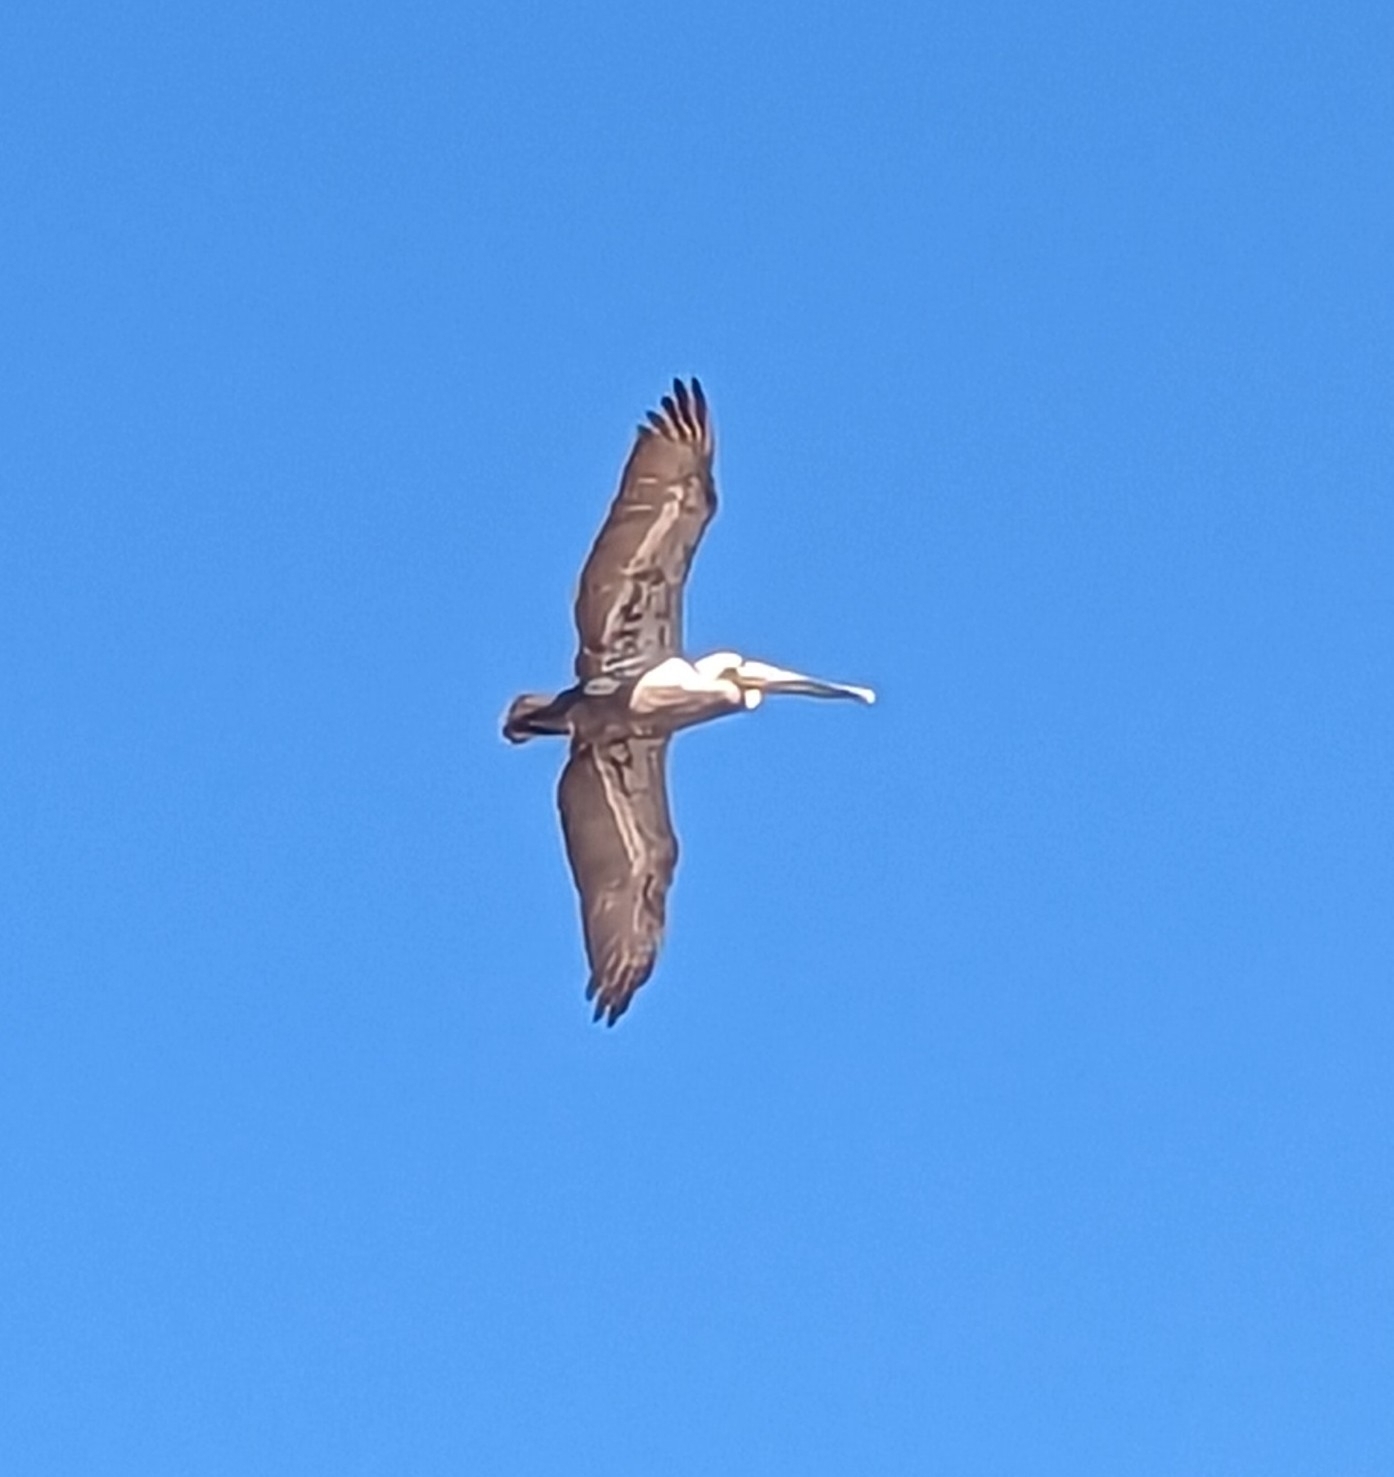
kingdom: Animalia
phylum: Chordata
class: Aves
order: Pelecaniformes
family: Pelecanidae
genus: Pelecanus
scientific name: Pelecanus occidentalis
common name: Brown pelican
